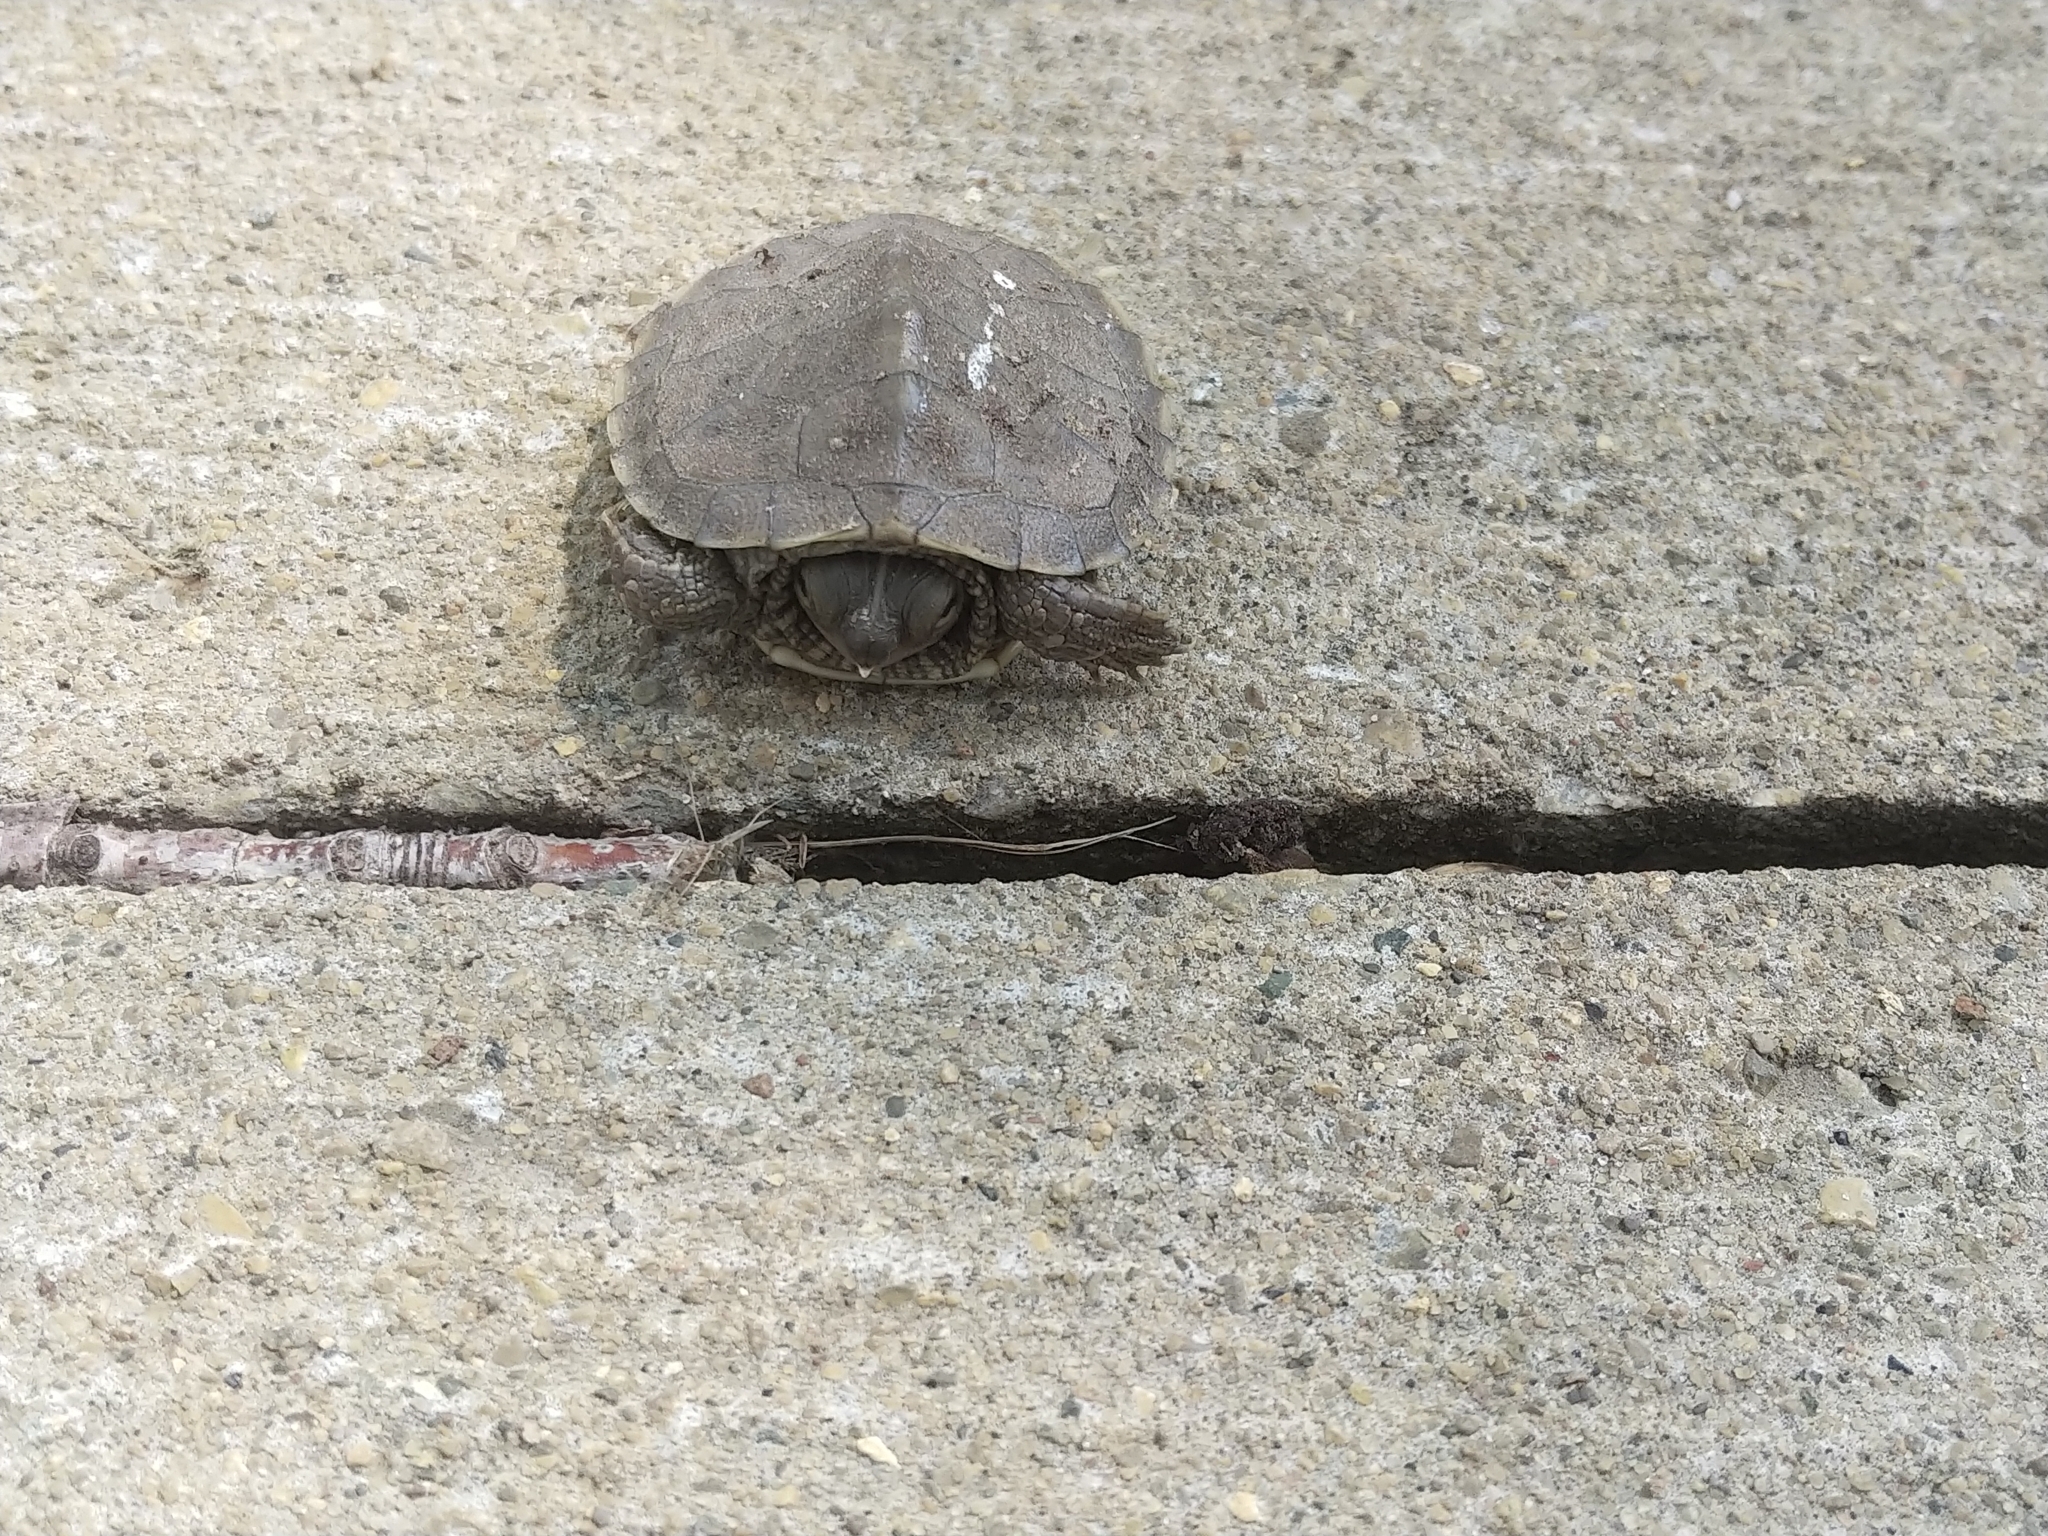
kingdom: Animalia
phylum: Chordata
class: Testudines
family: Emydidae
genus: Graptemys
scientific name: Graptemys geographica
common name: Common map turtle
